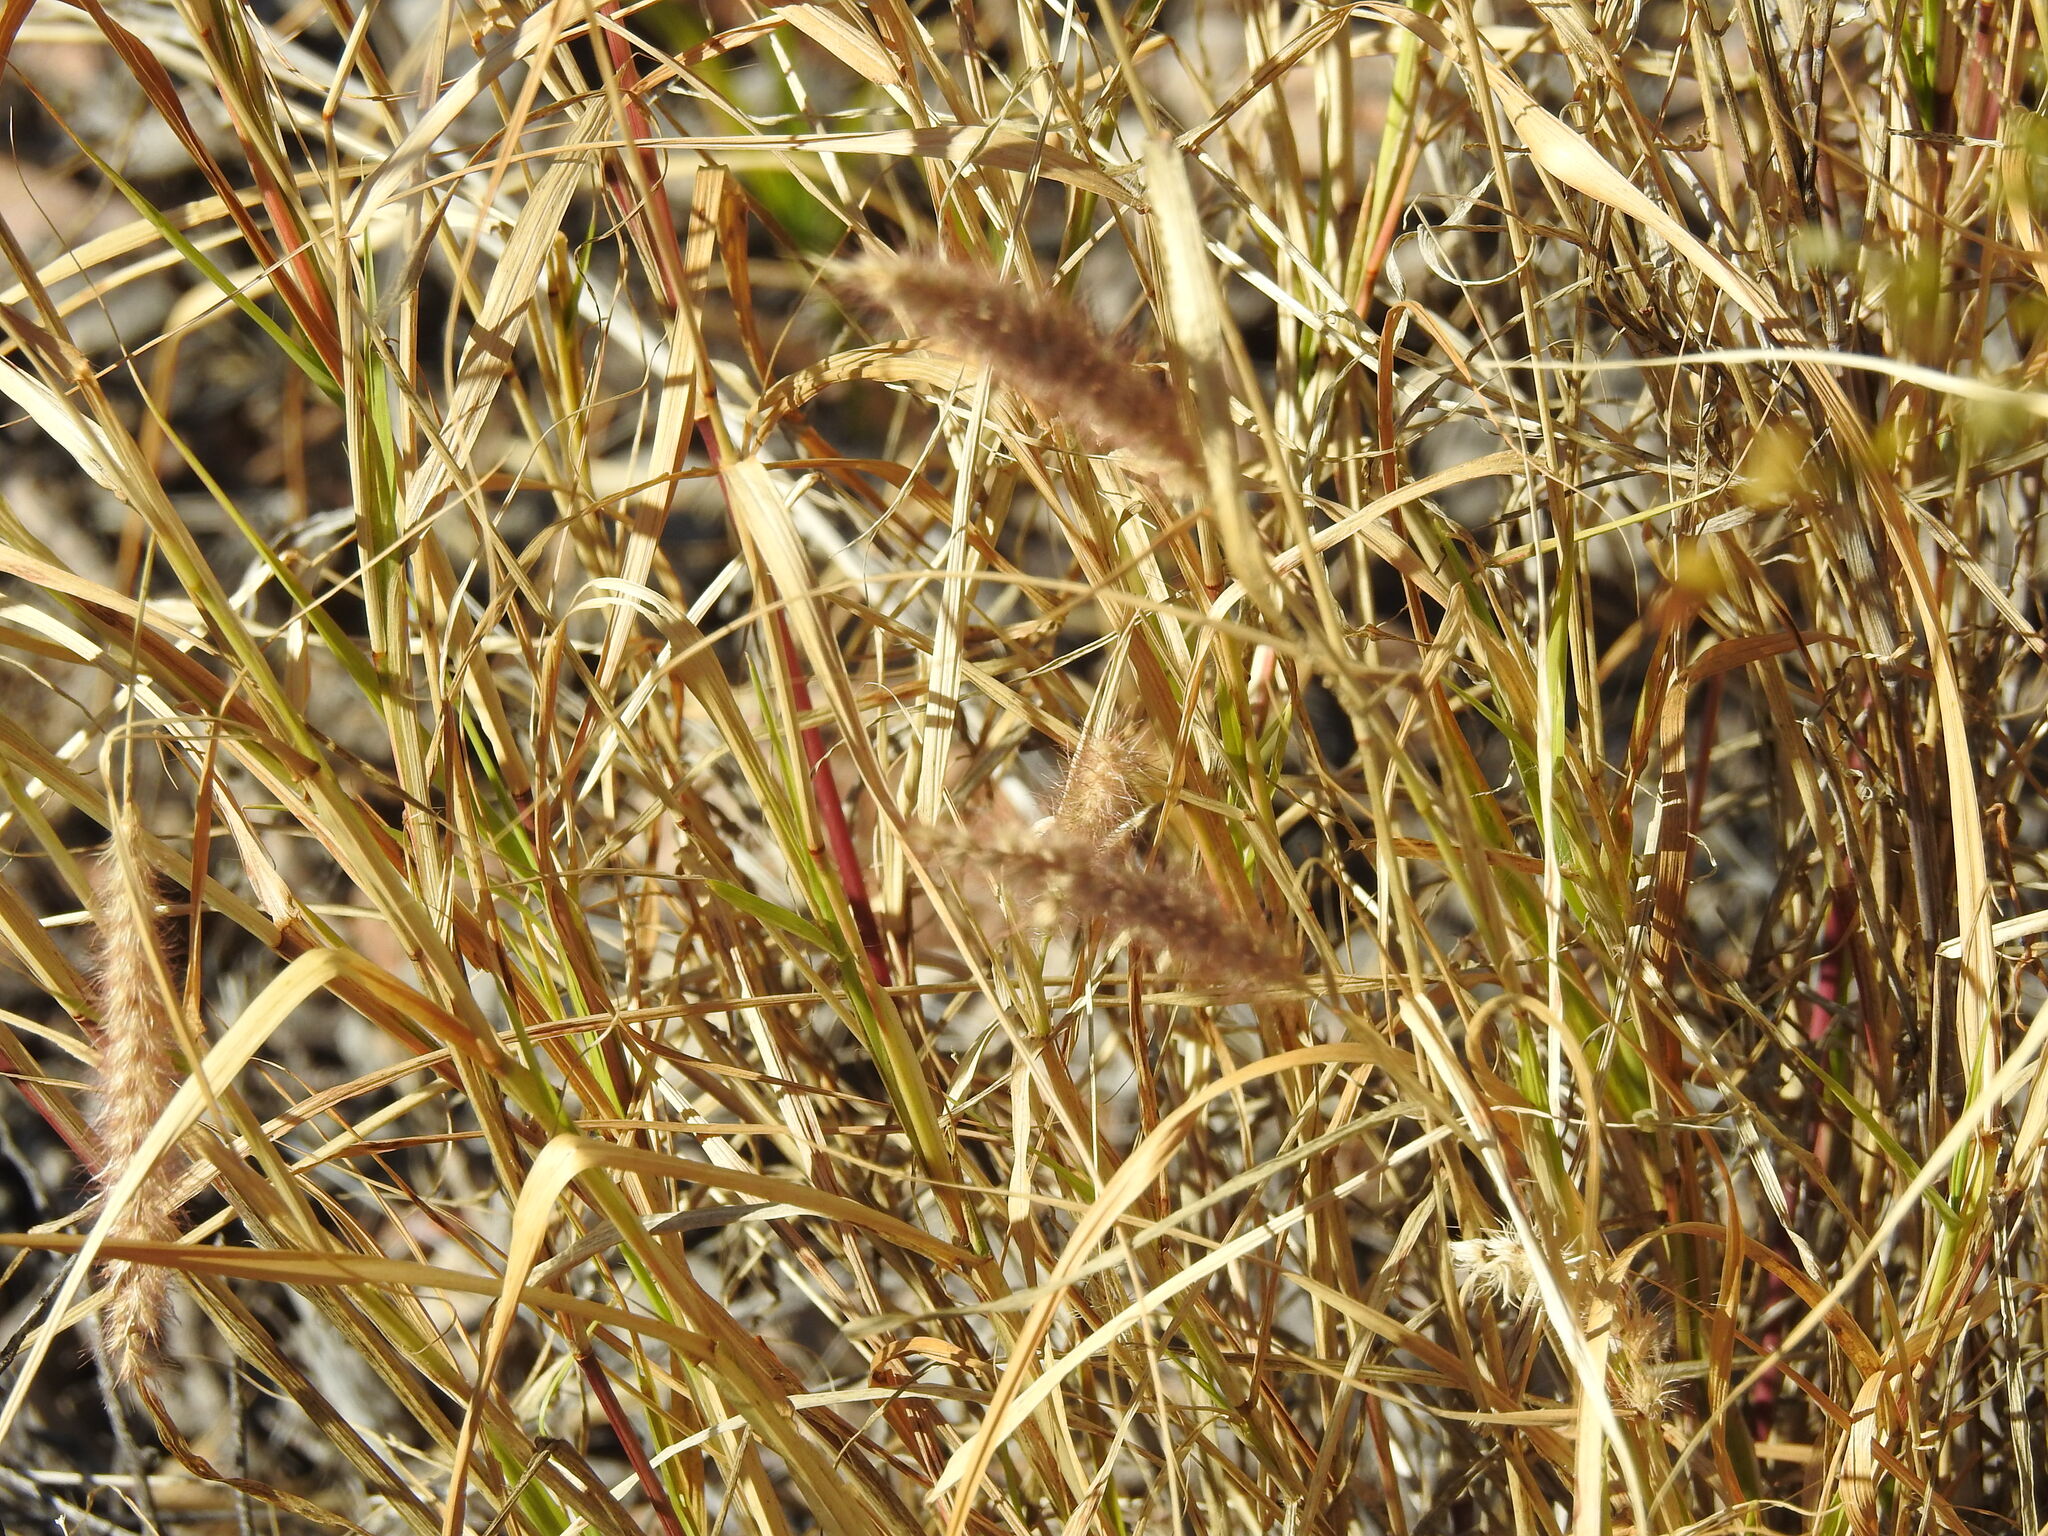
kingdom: Plantae
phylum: Tracheophyta
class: Liliopsida
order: Poales
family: Poaceae
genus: Cenchrus
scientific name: Cenchrus ciliaris
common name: Buffelgrass
